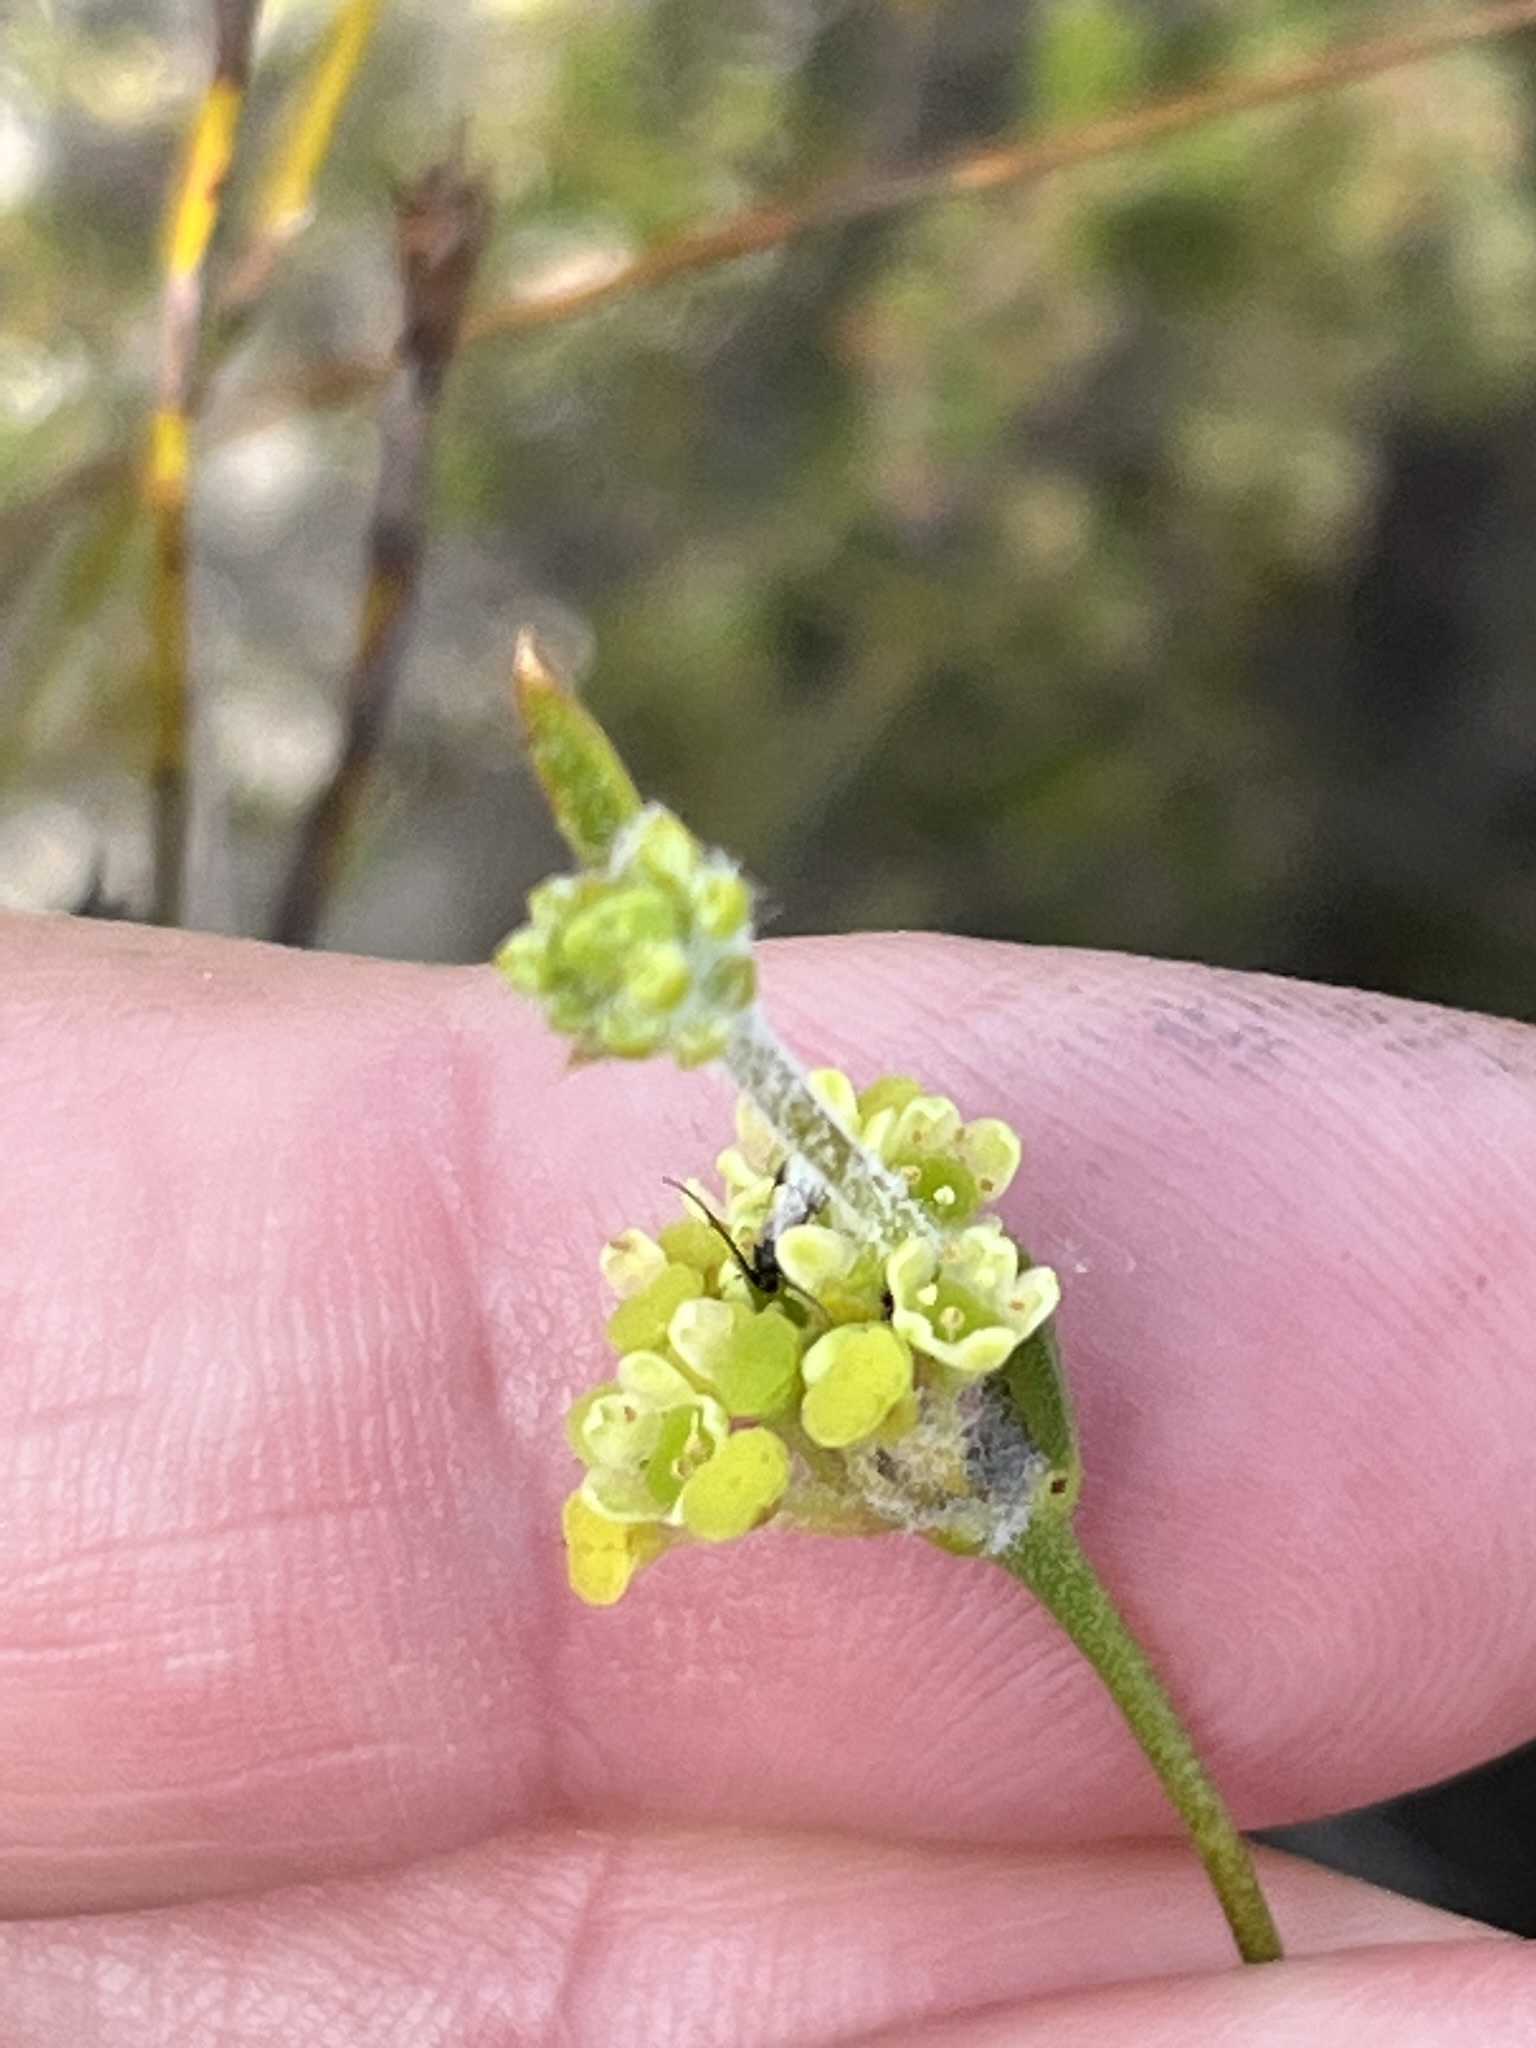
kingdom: Plantae
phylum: Tracheophyta
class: Magnoliopsida
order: Apiales
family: Apiaceae
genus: Centella
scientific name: Centella brachycarpa
